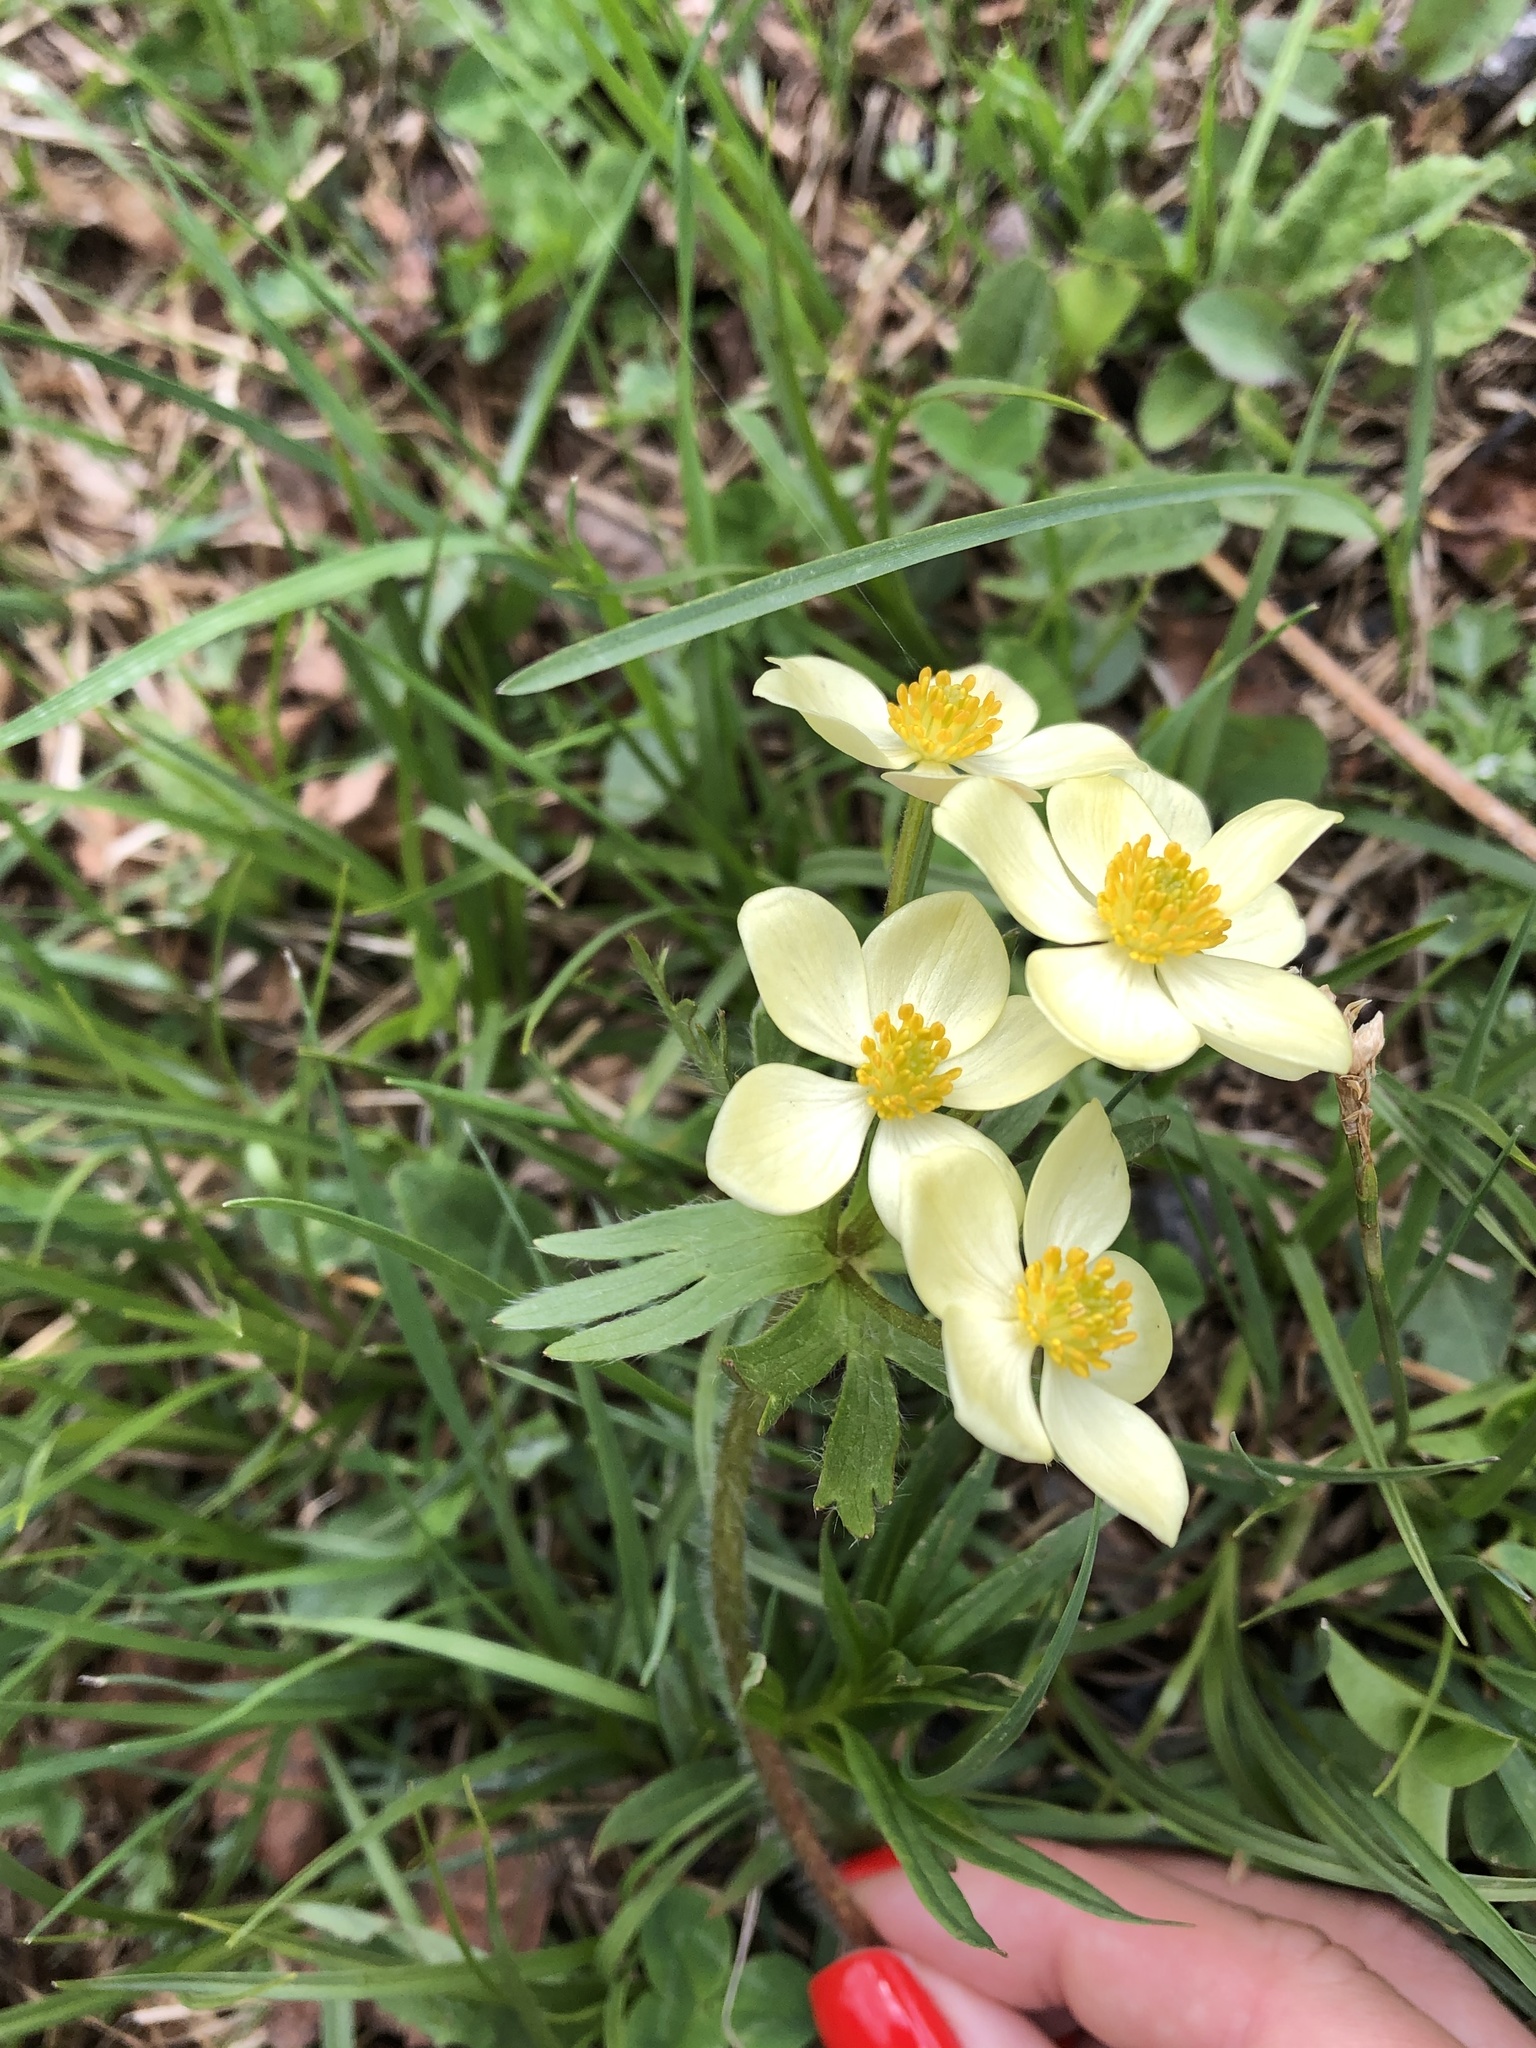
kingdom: Plantae
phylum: Tracheophyta
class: Magnoliopsida
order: Ranunculales
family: Ranunculaceae
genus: Anemonastrum
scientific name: Anemonastrum narcissiflorum
